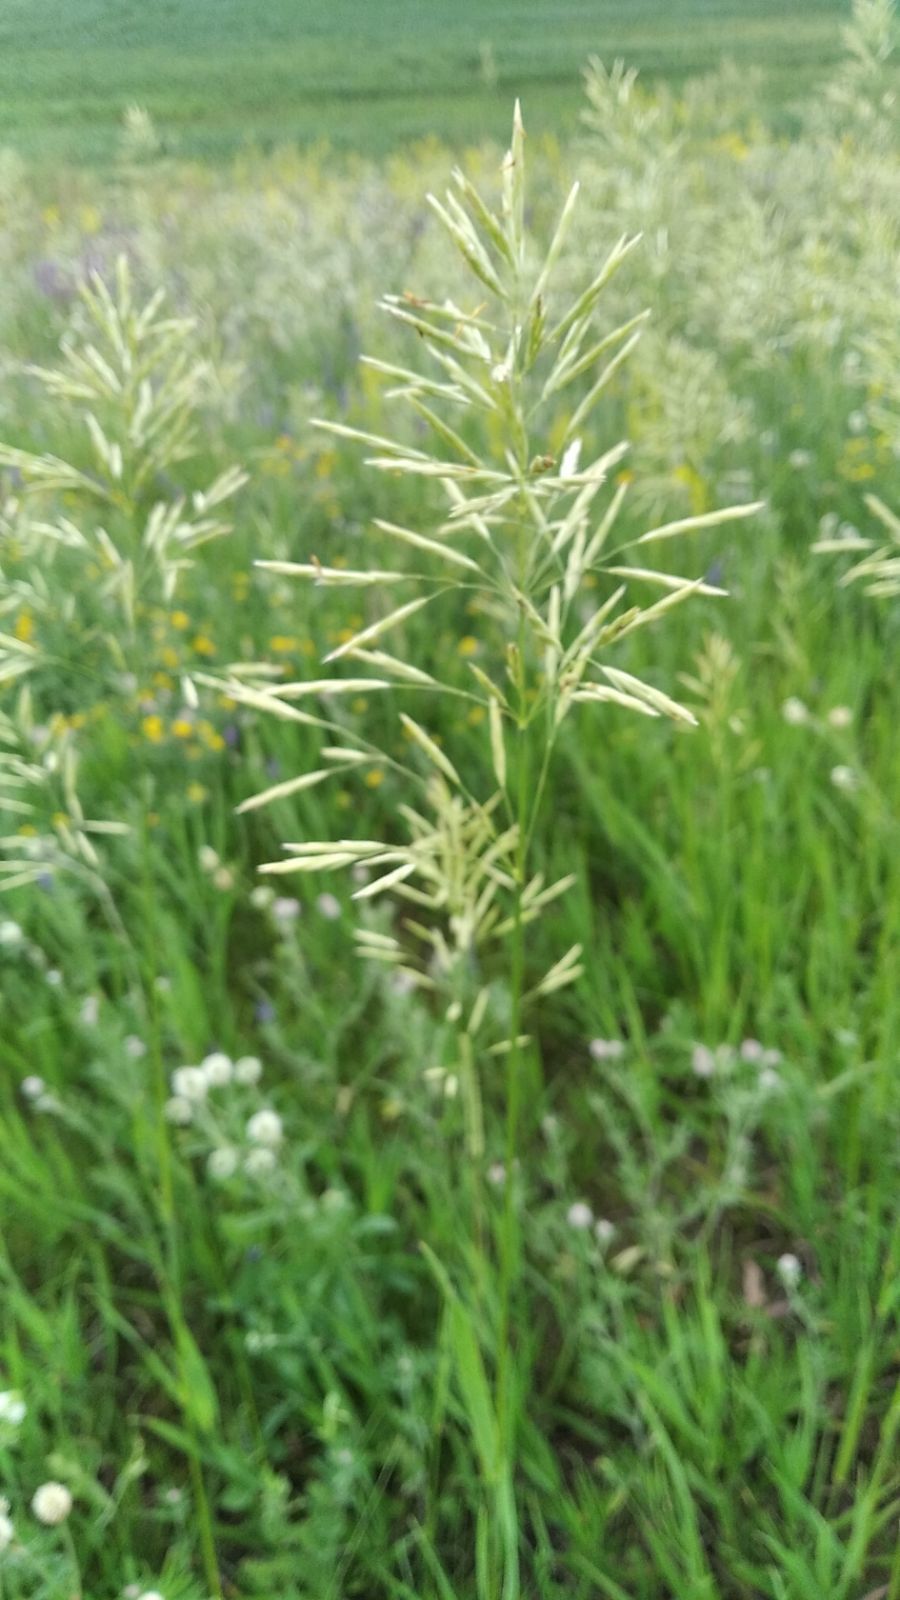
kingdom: Plantae
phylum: Tracheophyta
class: Liliopsida
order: Poales
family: Poaceae
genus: Bromus
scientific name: Bromus inermis
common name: Smooth brome
